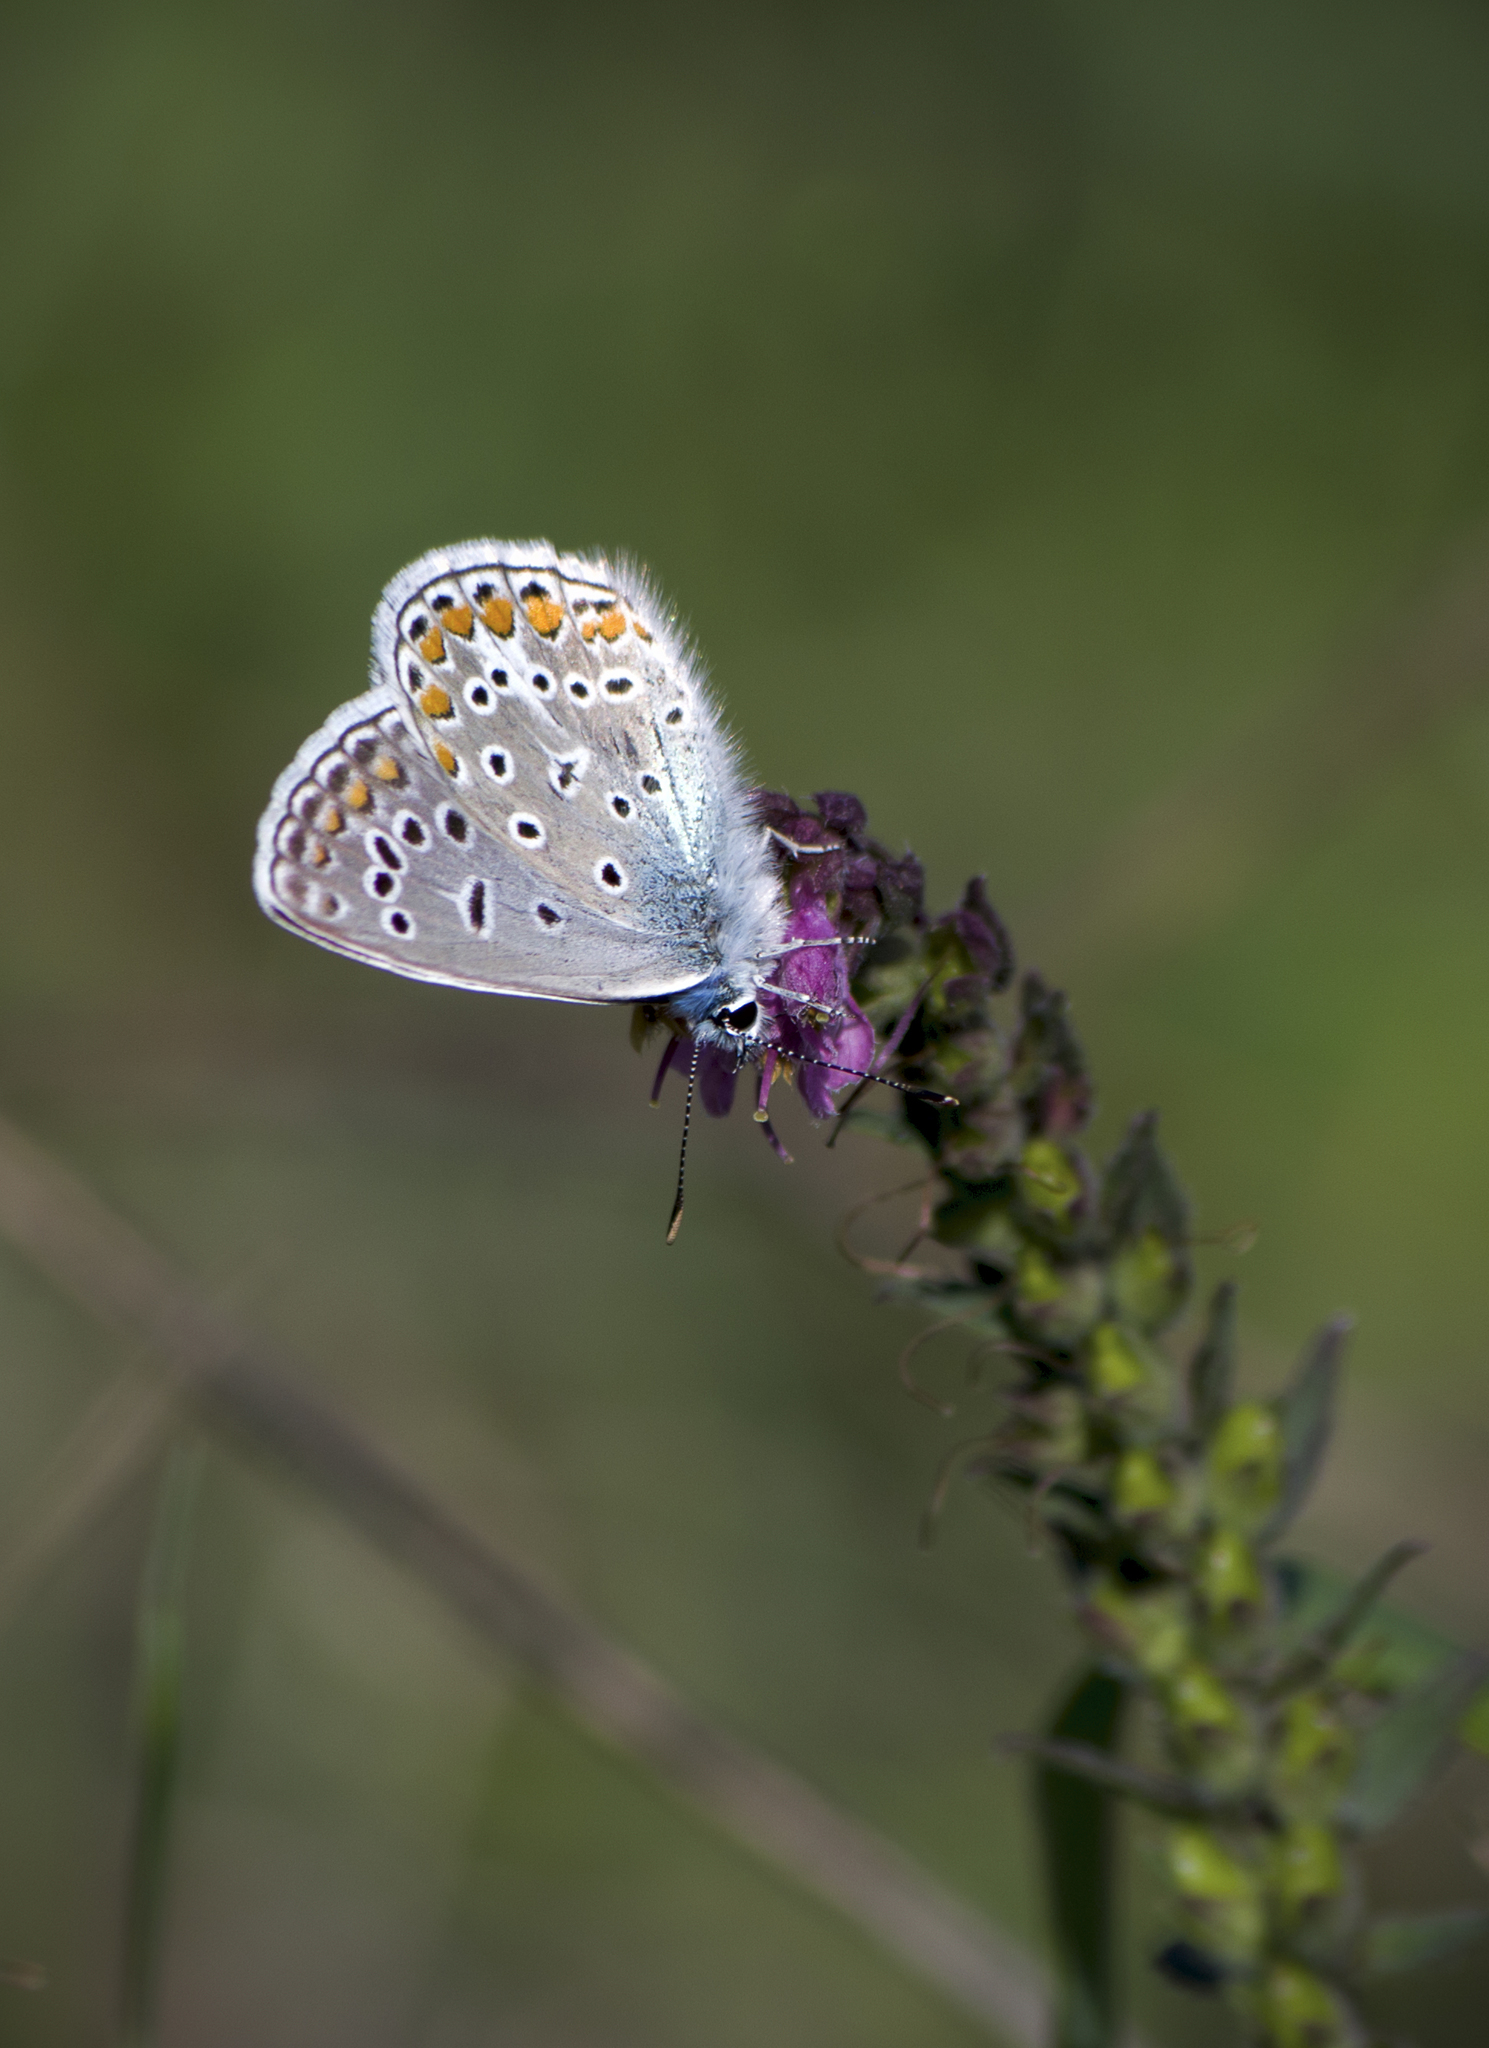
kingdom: Animalia
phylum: Arthropoda
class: Insecta
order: Lepidoptera
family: Lycaenidae
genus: Polyommatus
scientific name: Polyommatus icarus
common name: Common blue
